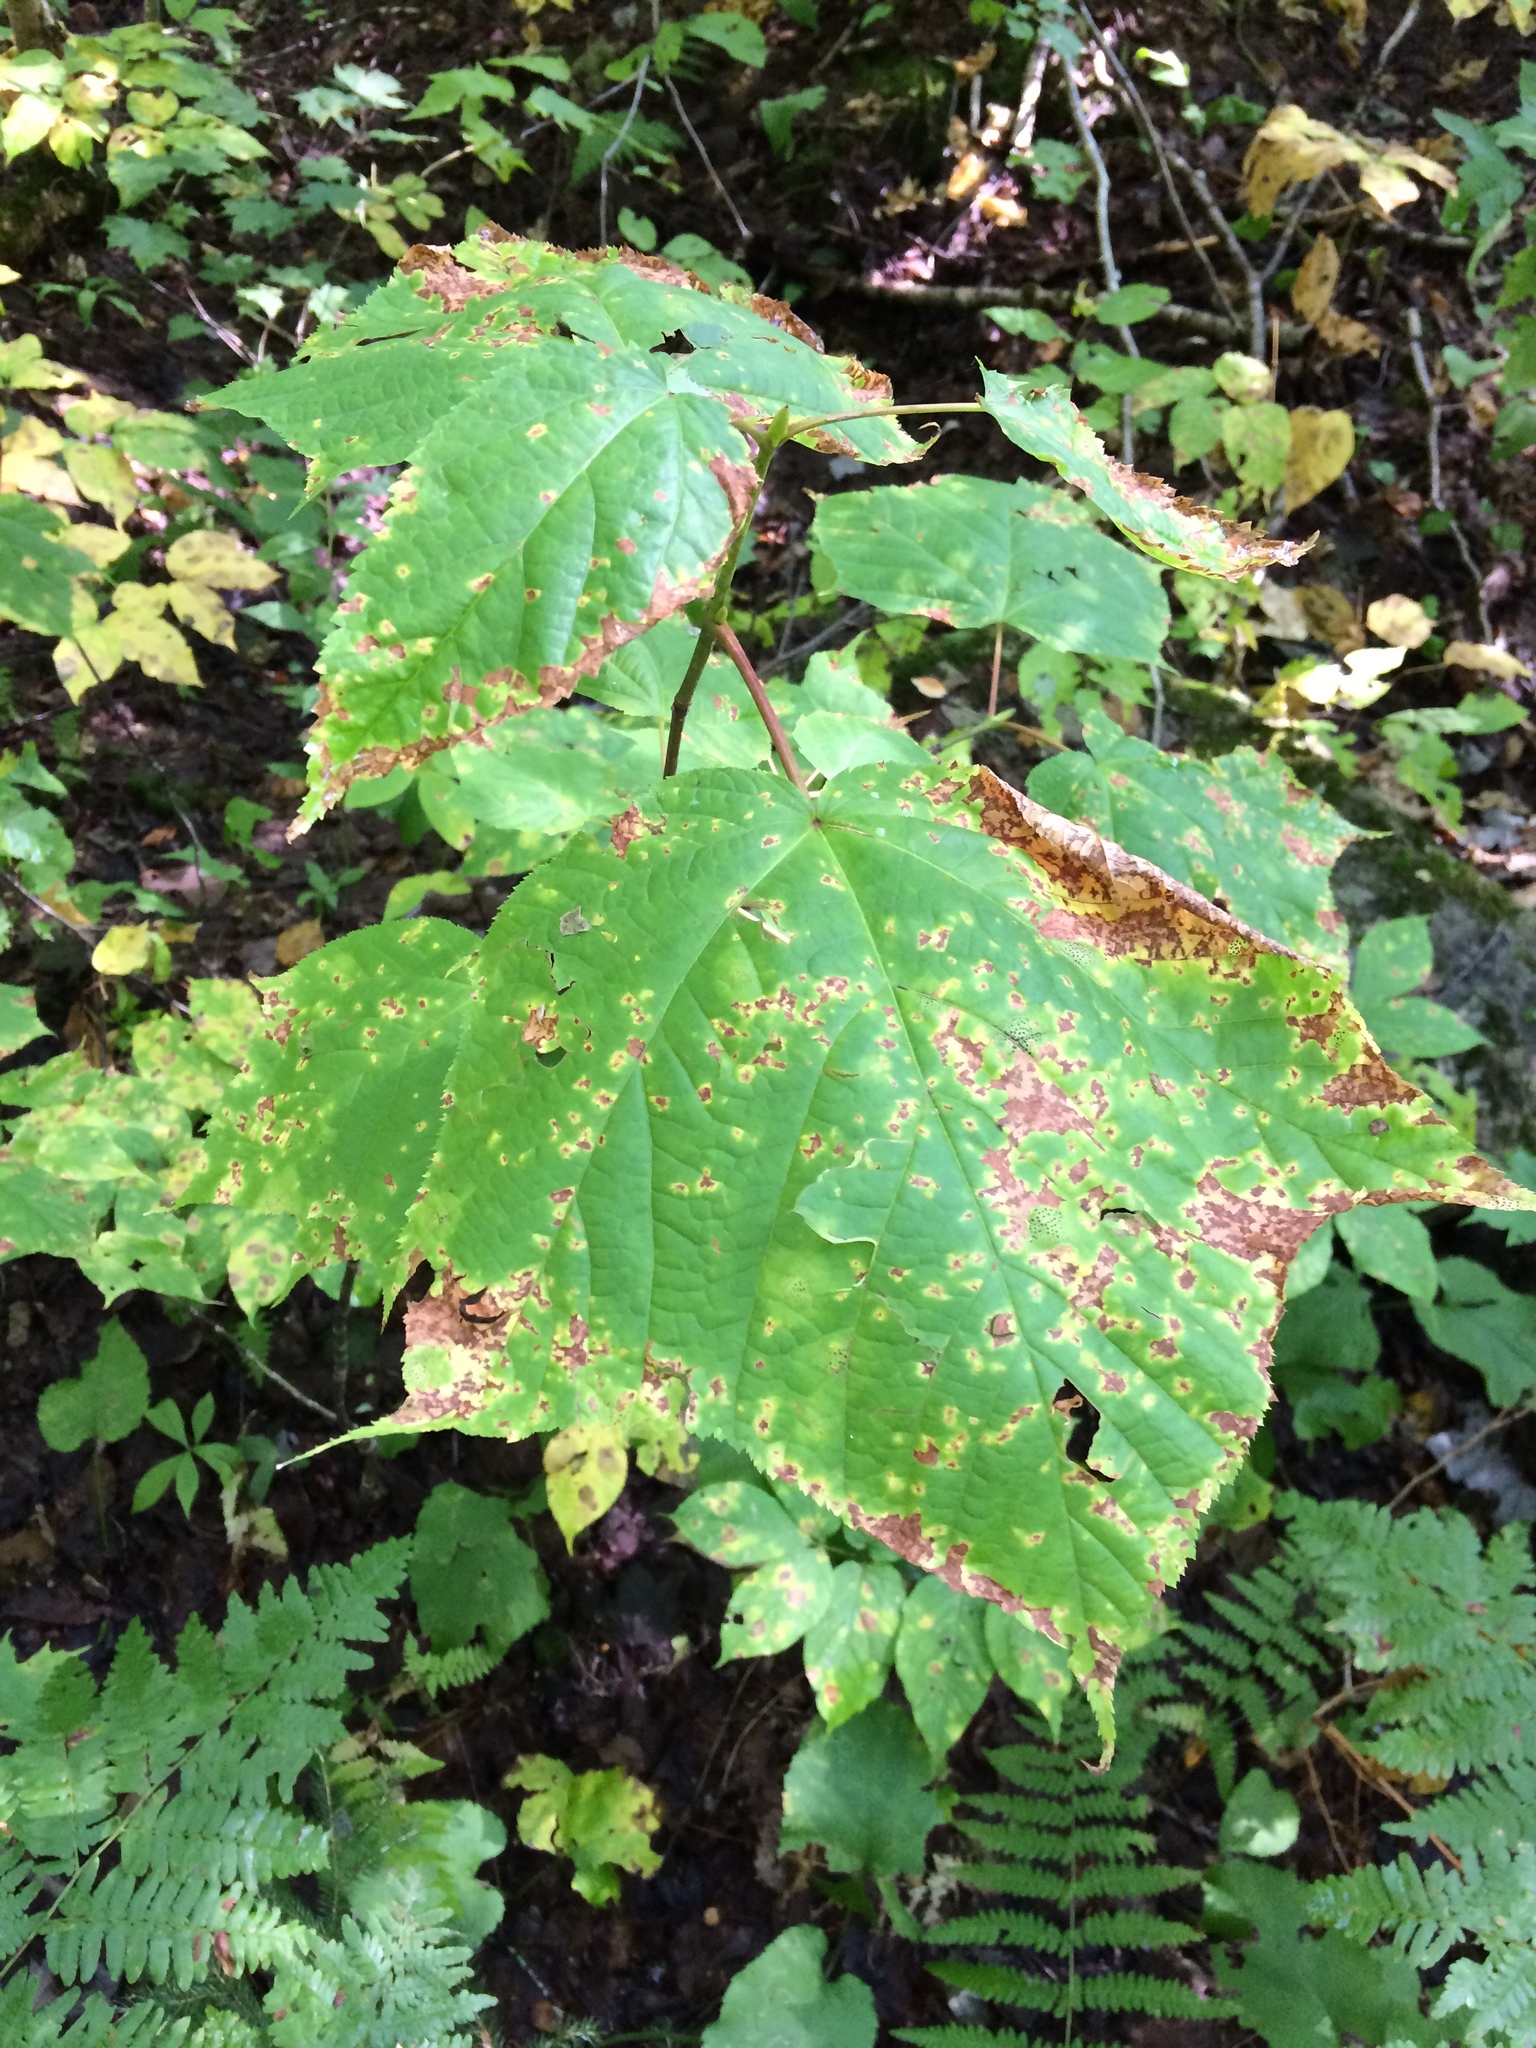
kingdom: Plantae
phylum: Tracheophyta
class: Magnoliopsida
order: Sapindales
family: Sapindaceae
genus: Acer
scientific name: Acer pensylvanicum
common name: Moosewood
